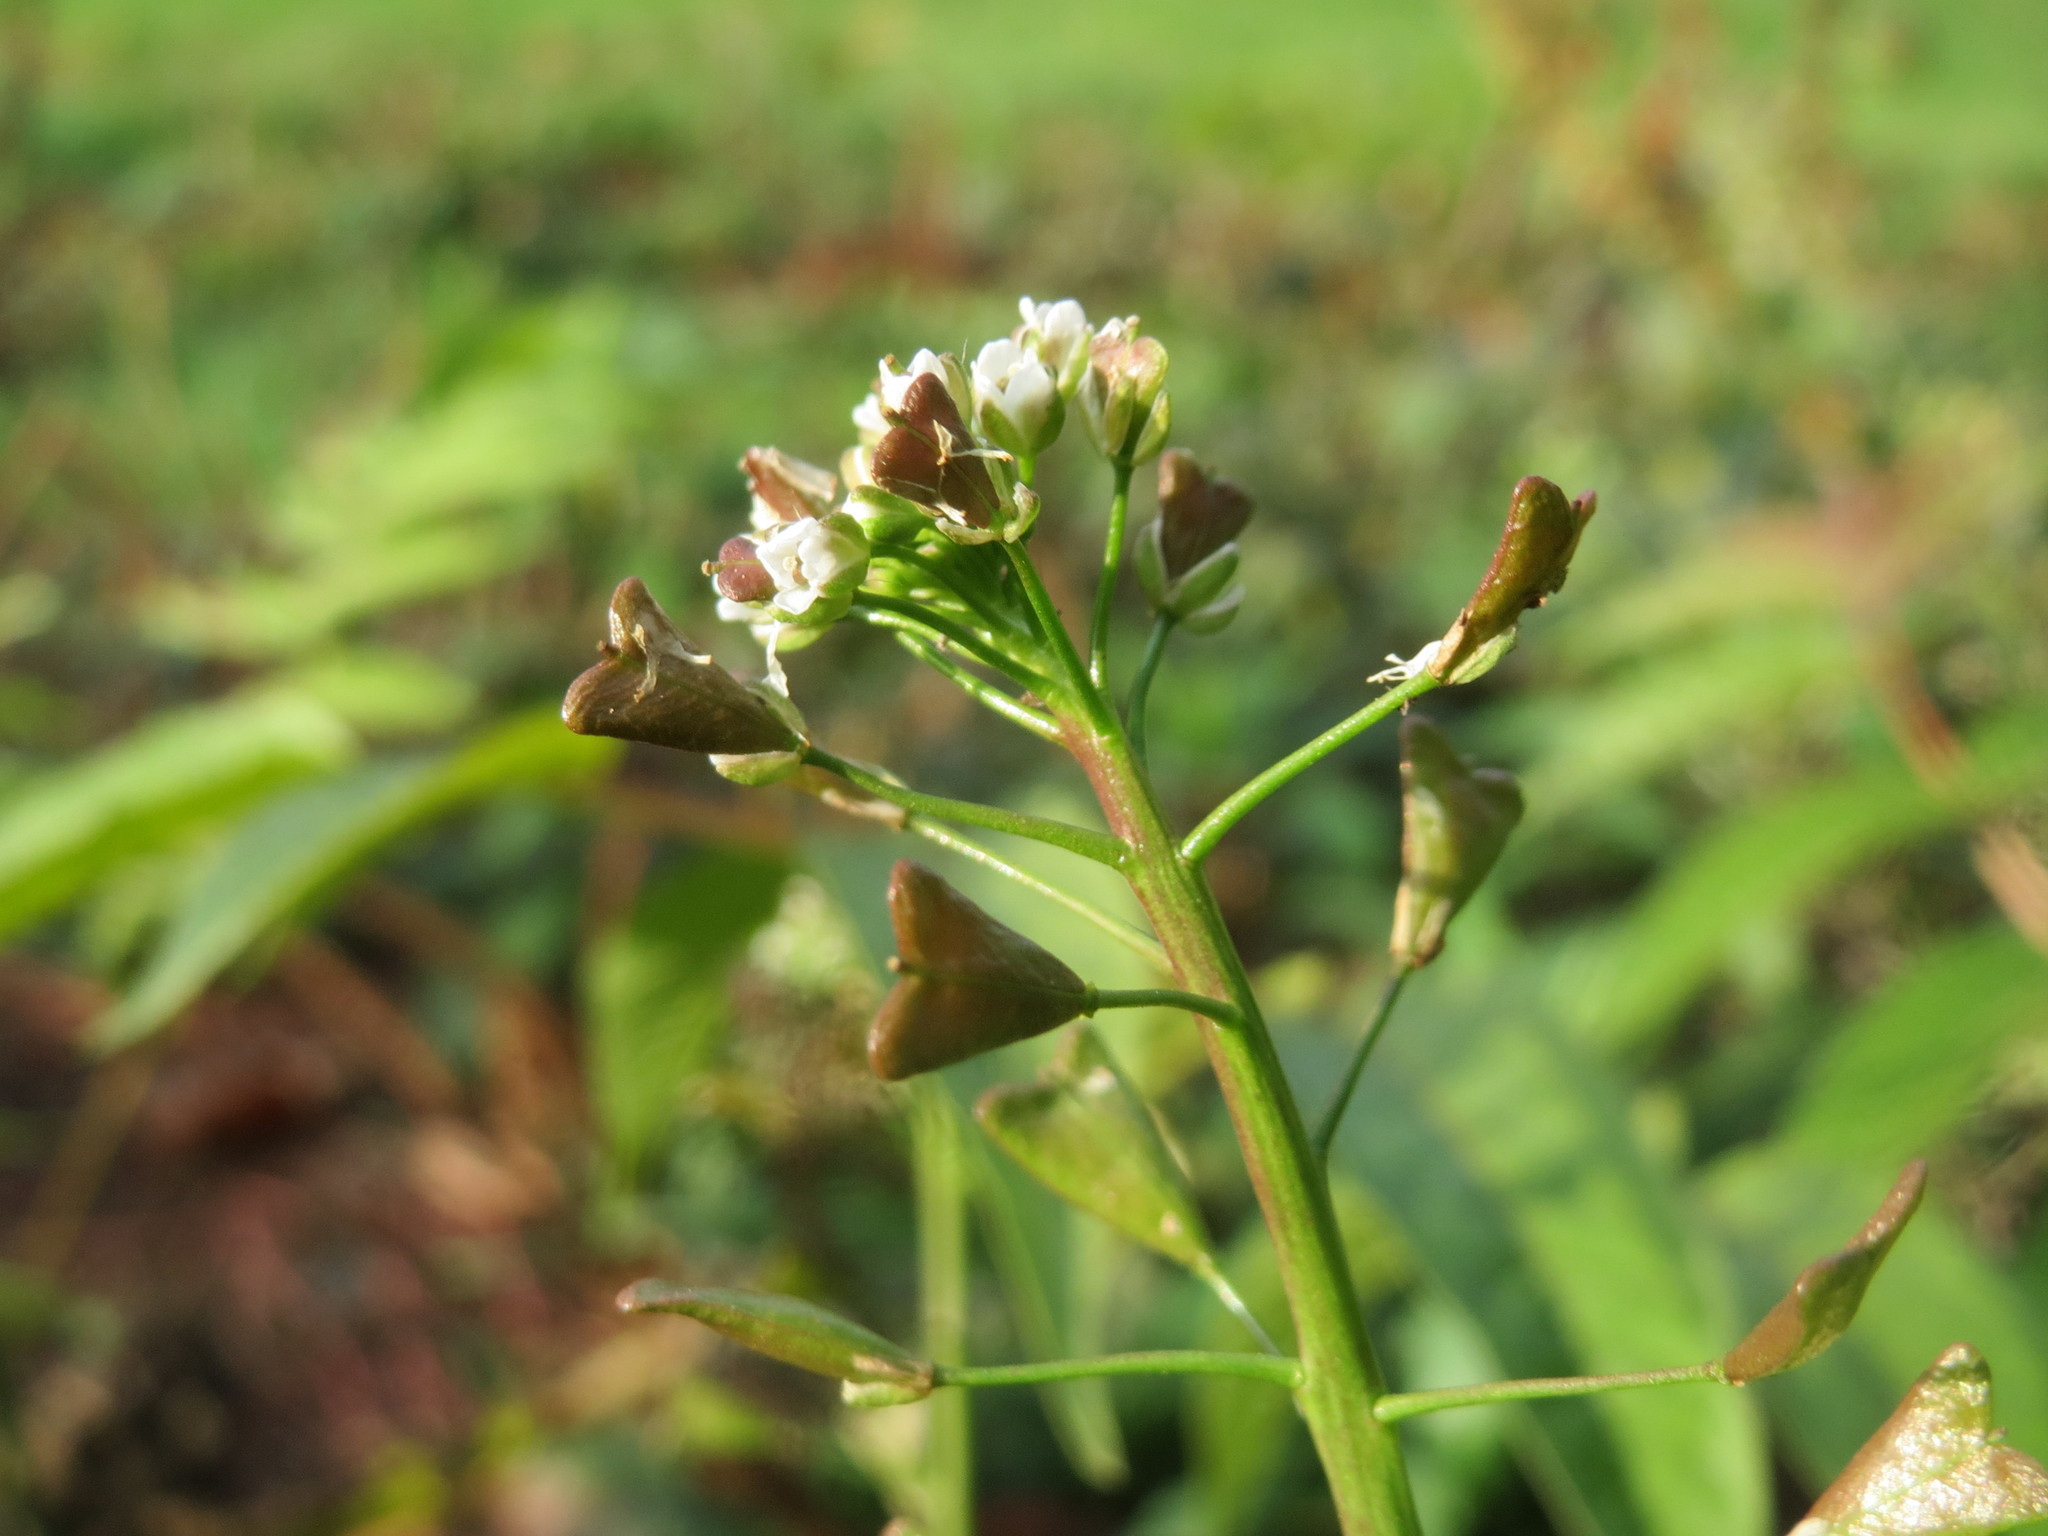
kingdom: Plantae
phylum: Tracheophyta
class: Magnoliopsida
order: Brassicales
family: Brassicaceae
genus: Capsella
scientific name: Capsella bursa-pastoris
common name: Shepherd's purse
